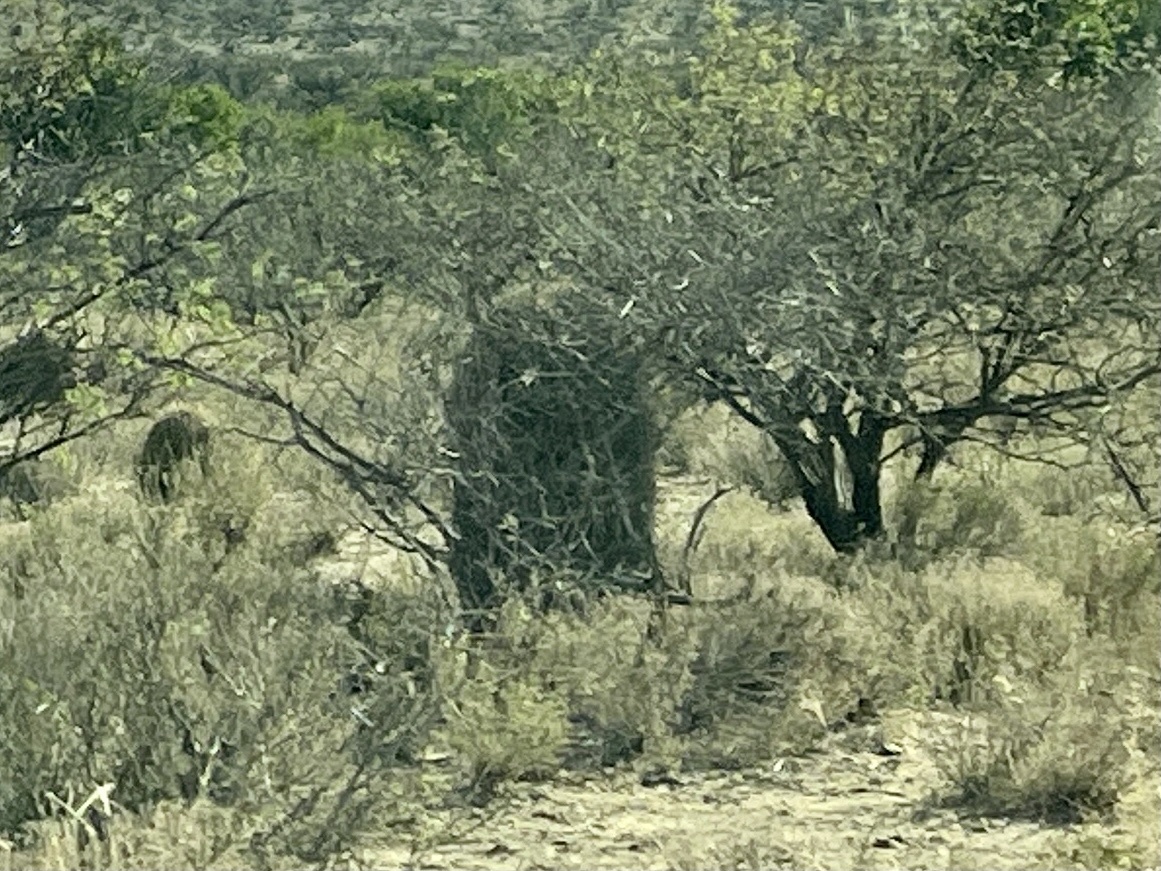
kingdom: Plantae
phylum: Tracheophyta
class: Magnoliopsida
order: Caryophyllales
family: Cactaceae
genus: Ferocactus
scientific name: Ferocactus wislizeni
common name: Candy barrel cactus
